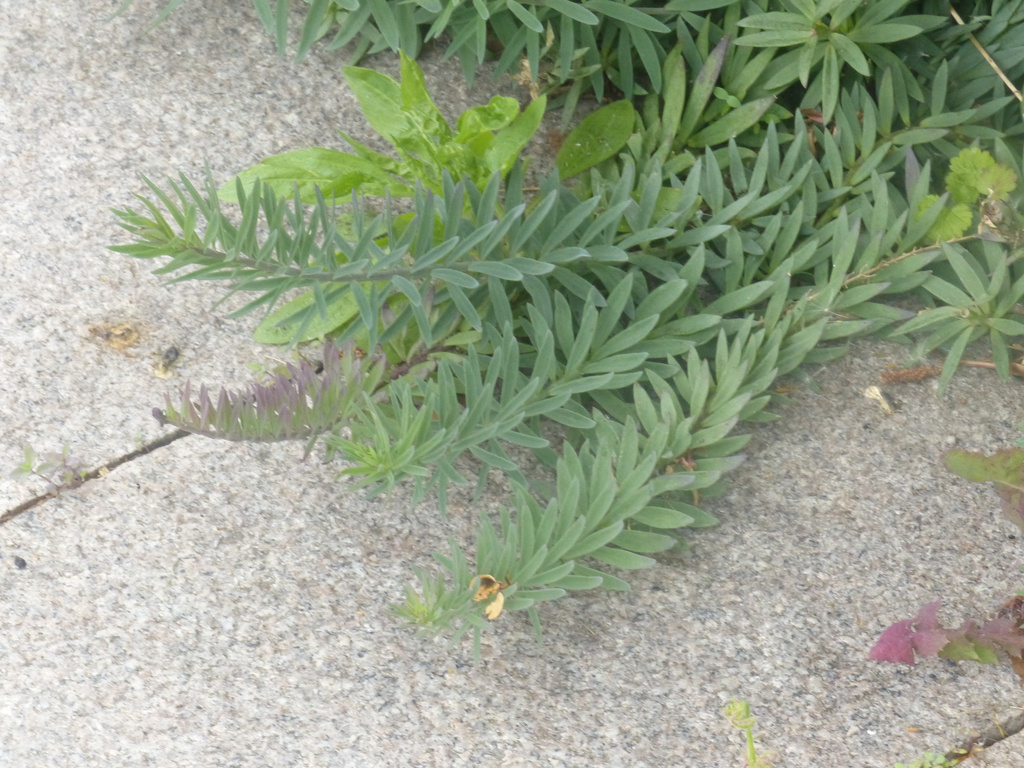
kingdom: Plantae
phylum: Tracheophyta
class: Magnoliopsida
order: Lamiales
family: Plantaginaceae
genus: Linaria
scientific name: Linaria purpurea
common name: Purple toadflax
